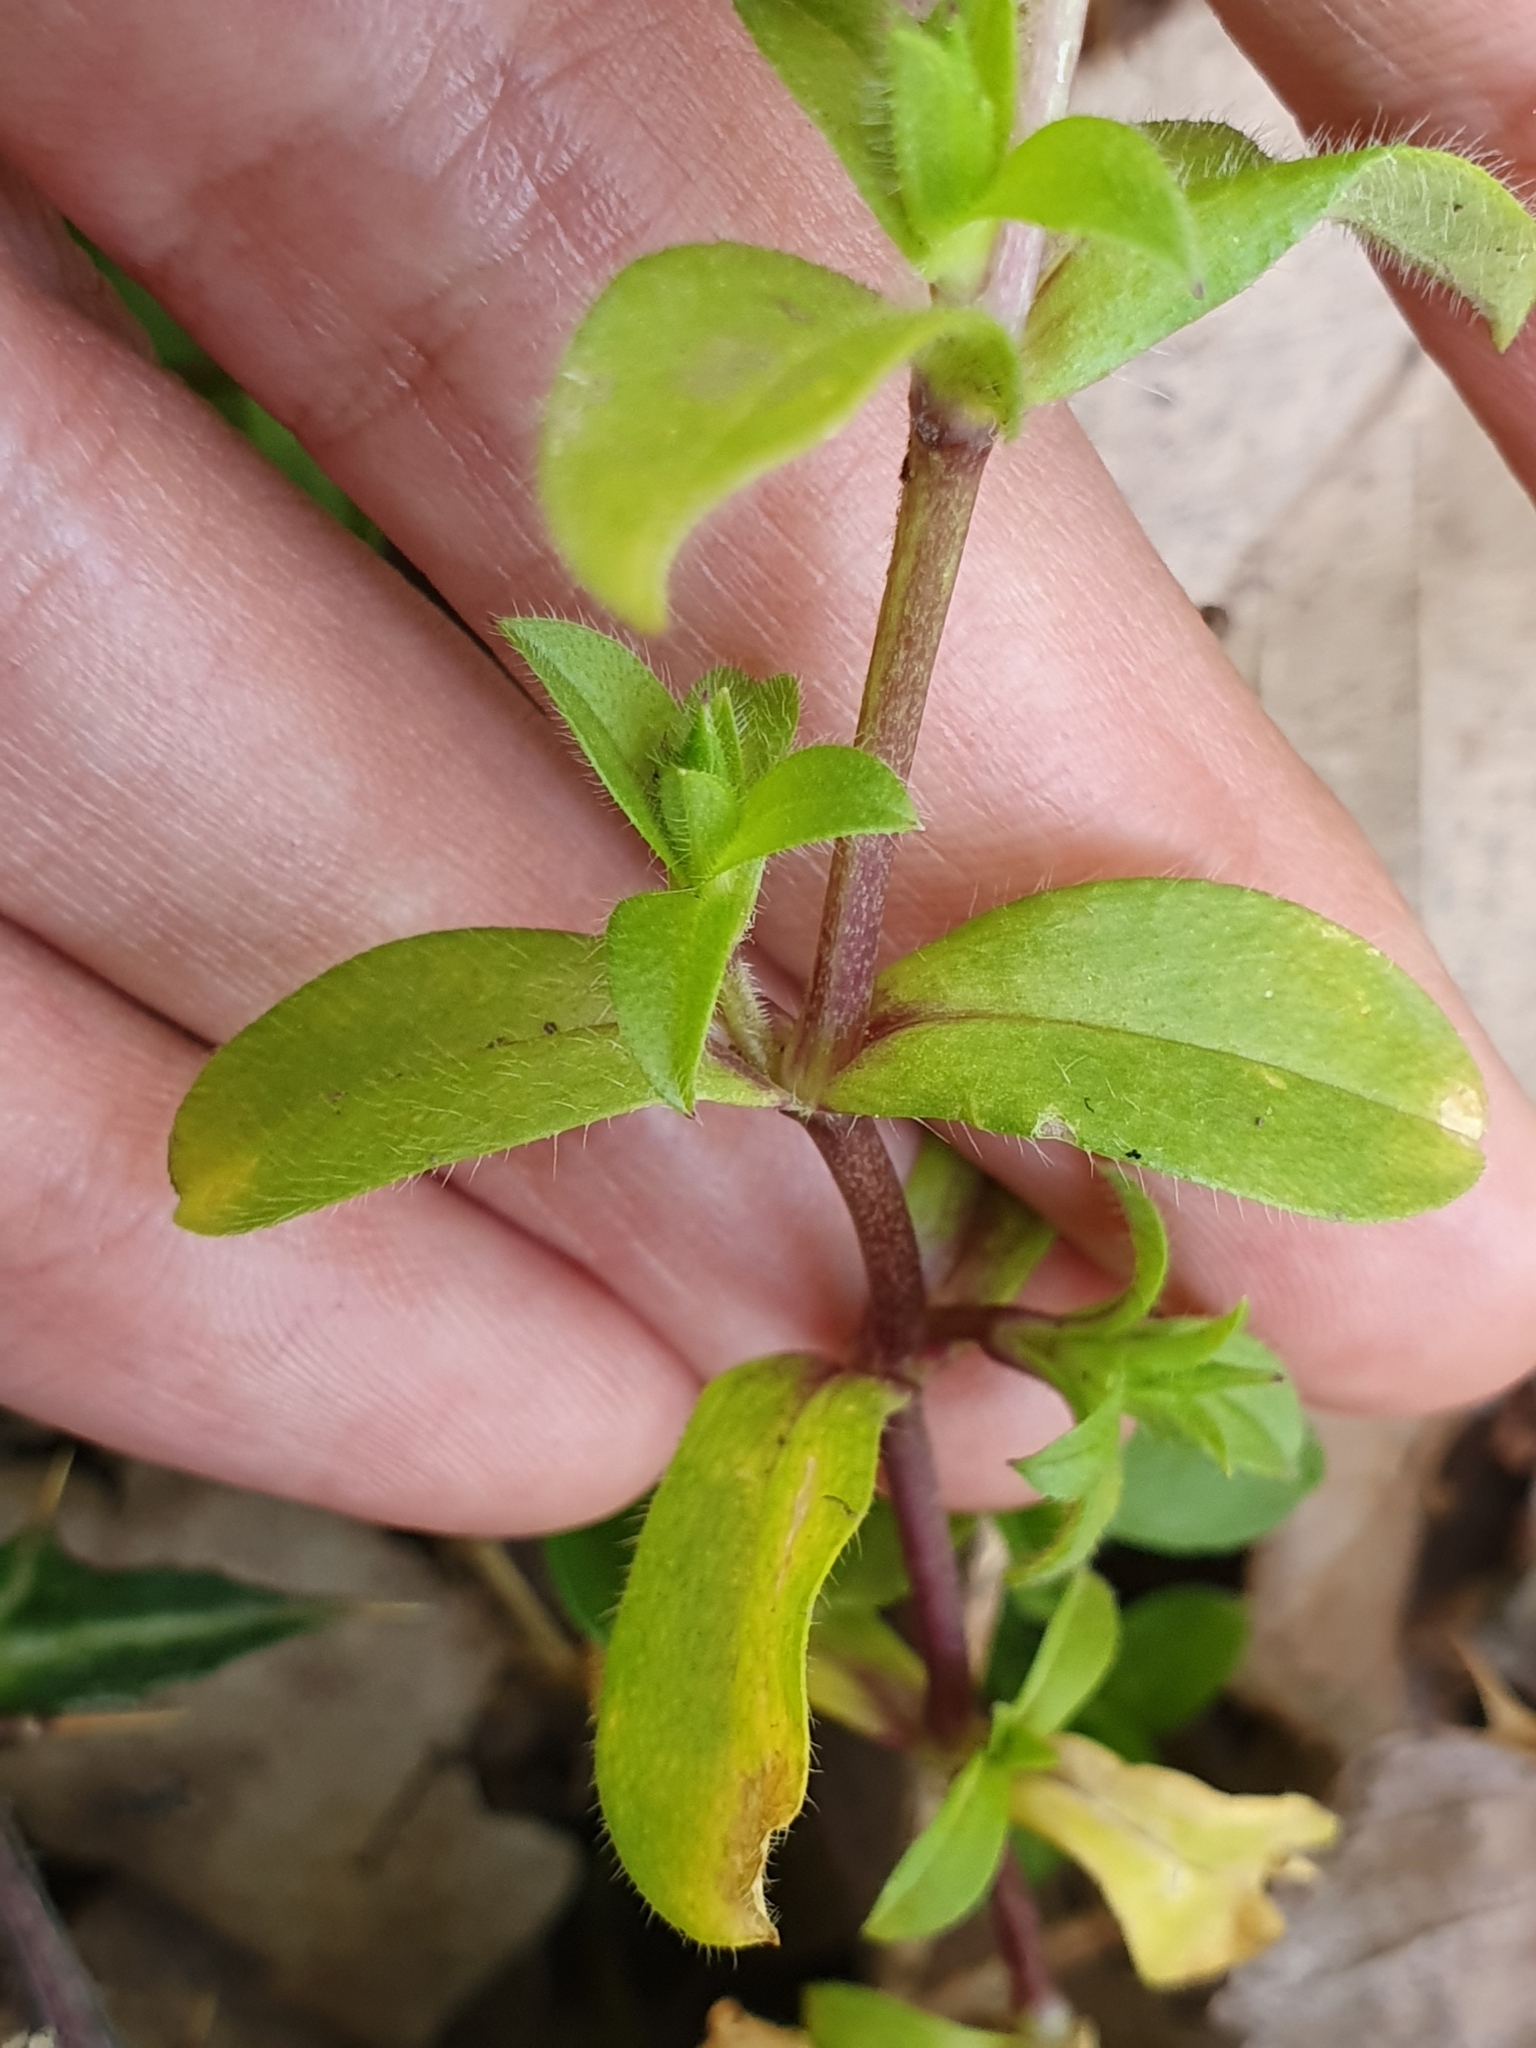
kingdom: Plantae
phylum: Tracheophyta
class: Magnoliopsida
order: Caryophyllales
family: Caryophyllaceae
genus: Cerastium
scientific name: Cerastium glomeratum
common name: Sticky chickweed
